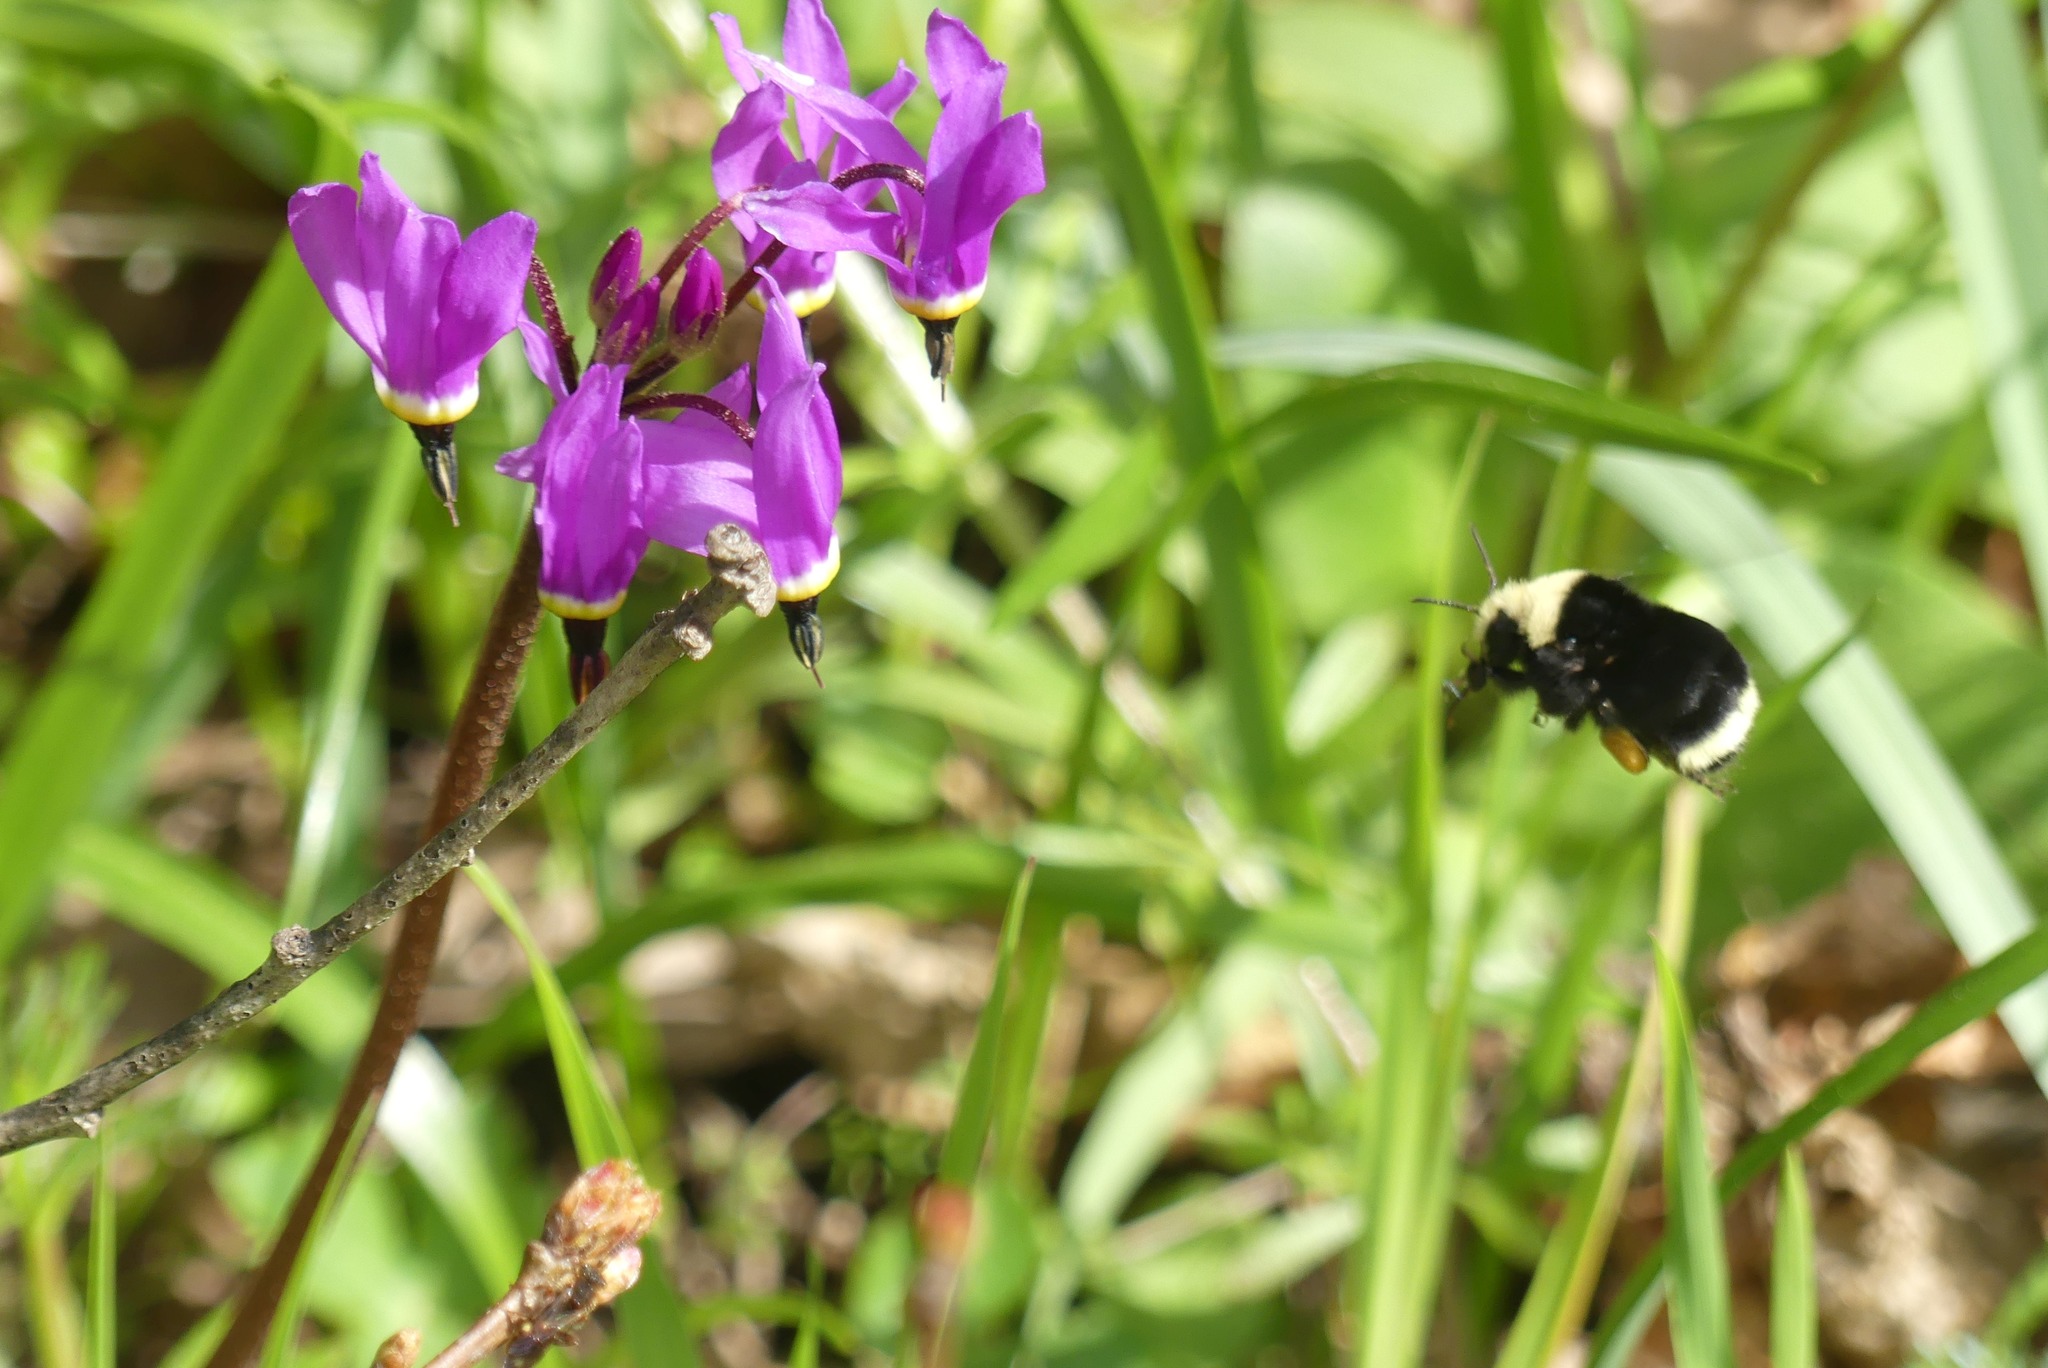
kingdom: Animalia
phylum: Arthropoda
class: Insecta
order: Hymenoptera
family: Apidae
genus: Bombus
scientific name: Bombus vosnesenskii
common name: Vosnesensky bumble bee
